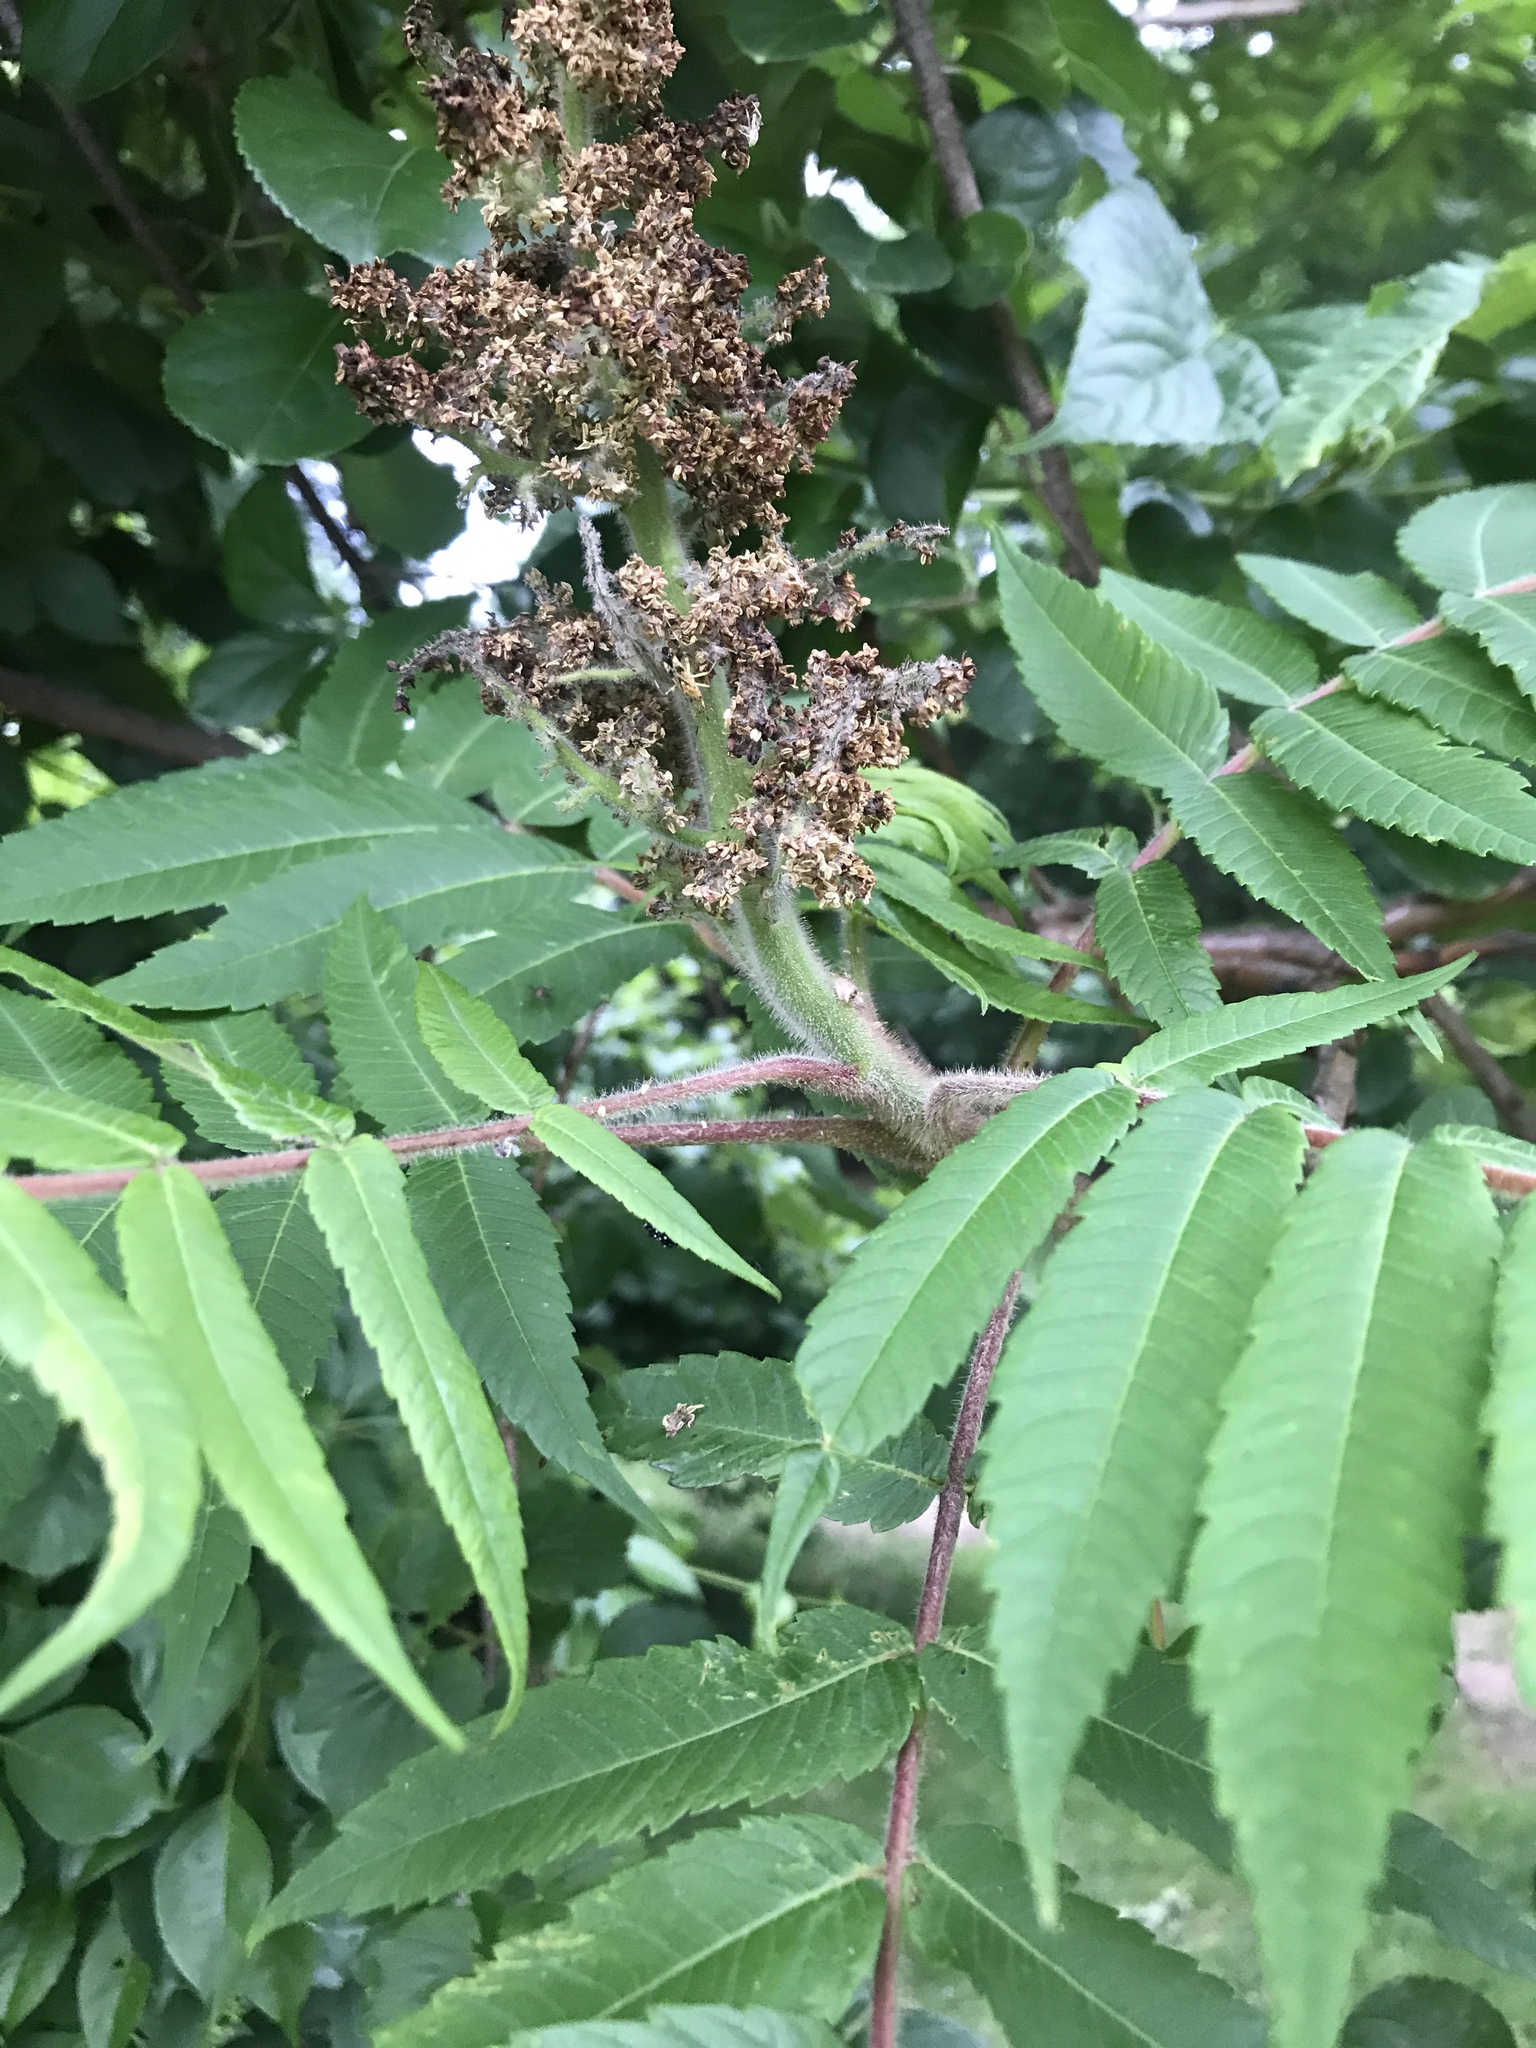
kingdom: Plantae
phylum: Tracheophyta
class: Magnoliopsida
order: Sapindales
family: Anacardiaceae
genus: Rhus
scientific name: Rhus typhina
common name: Staghorn sumac
